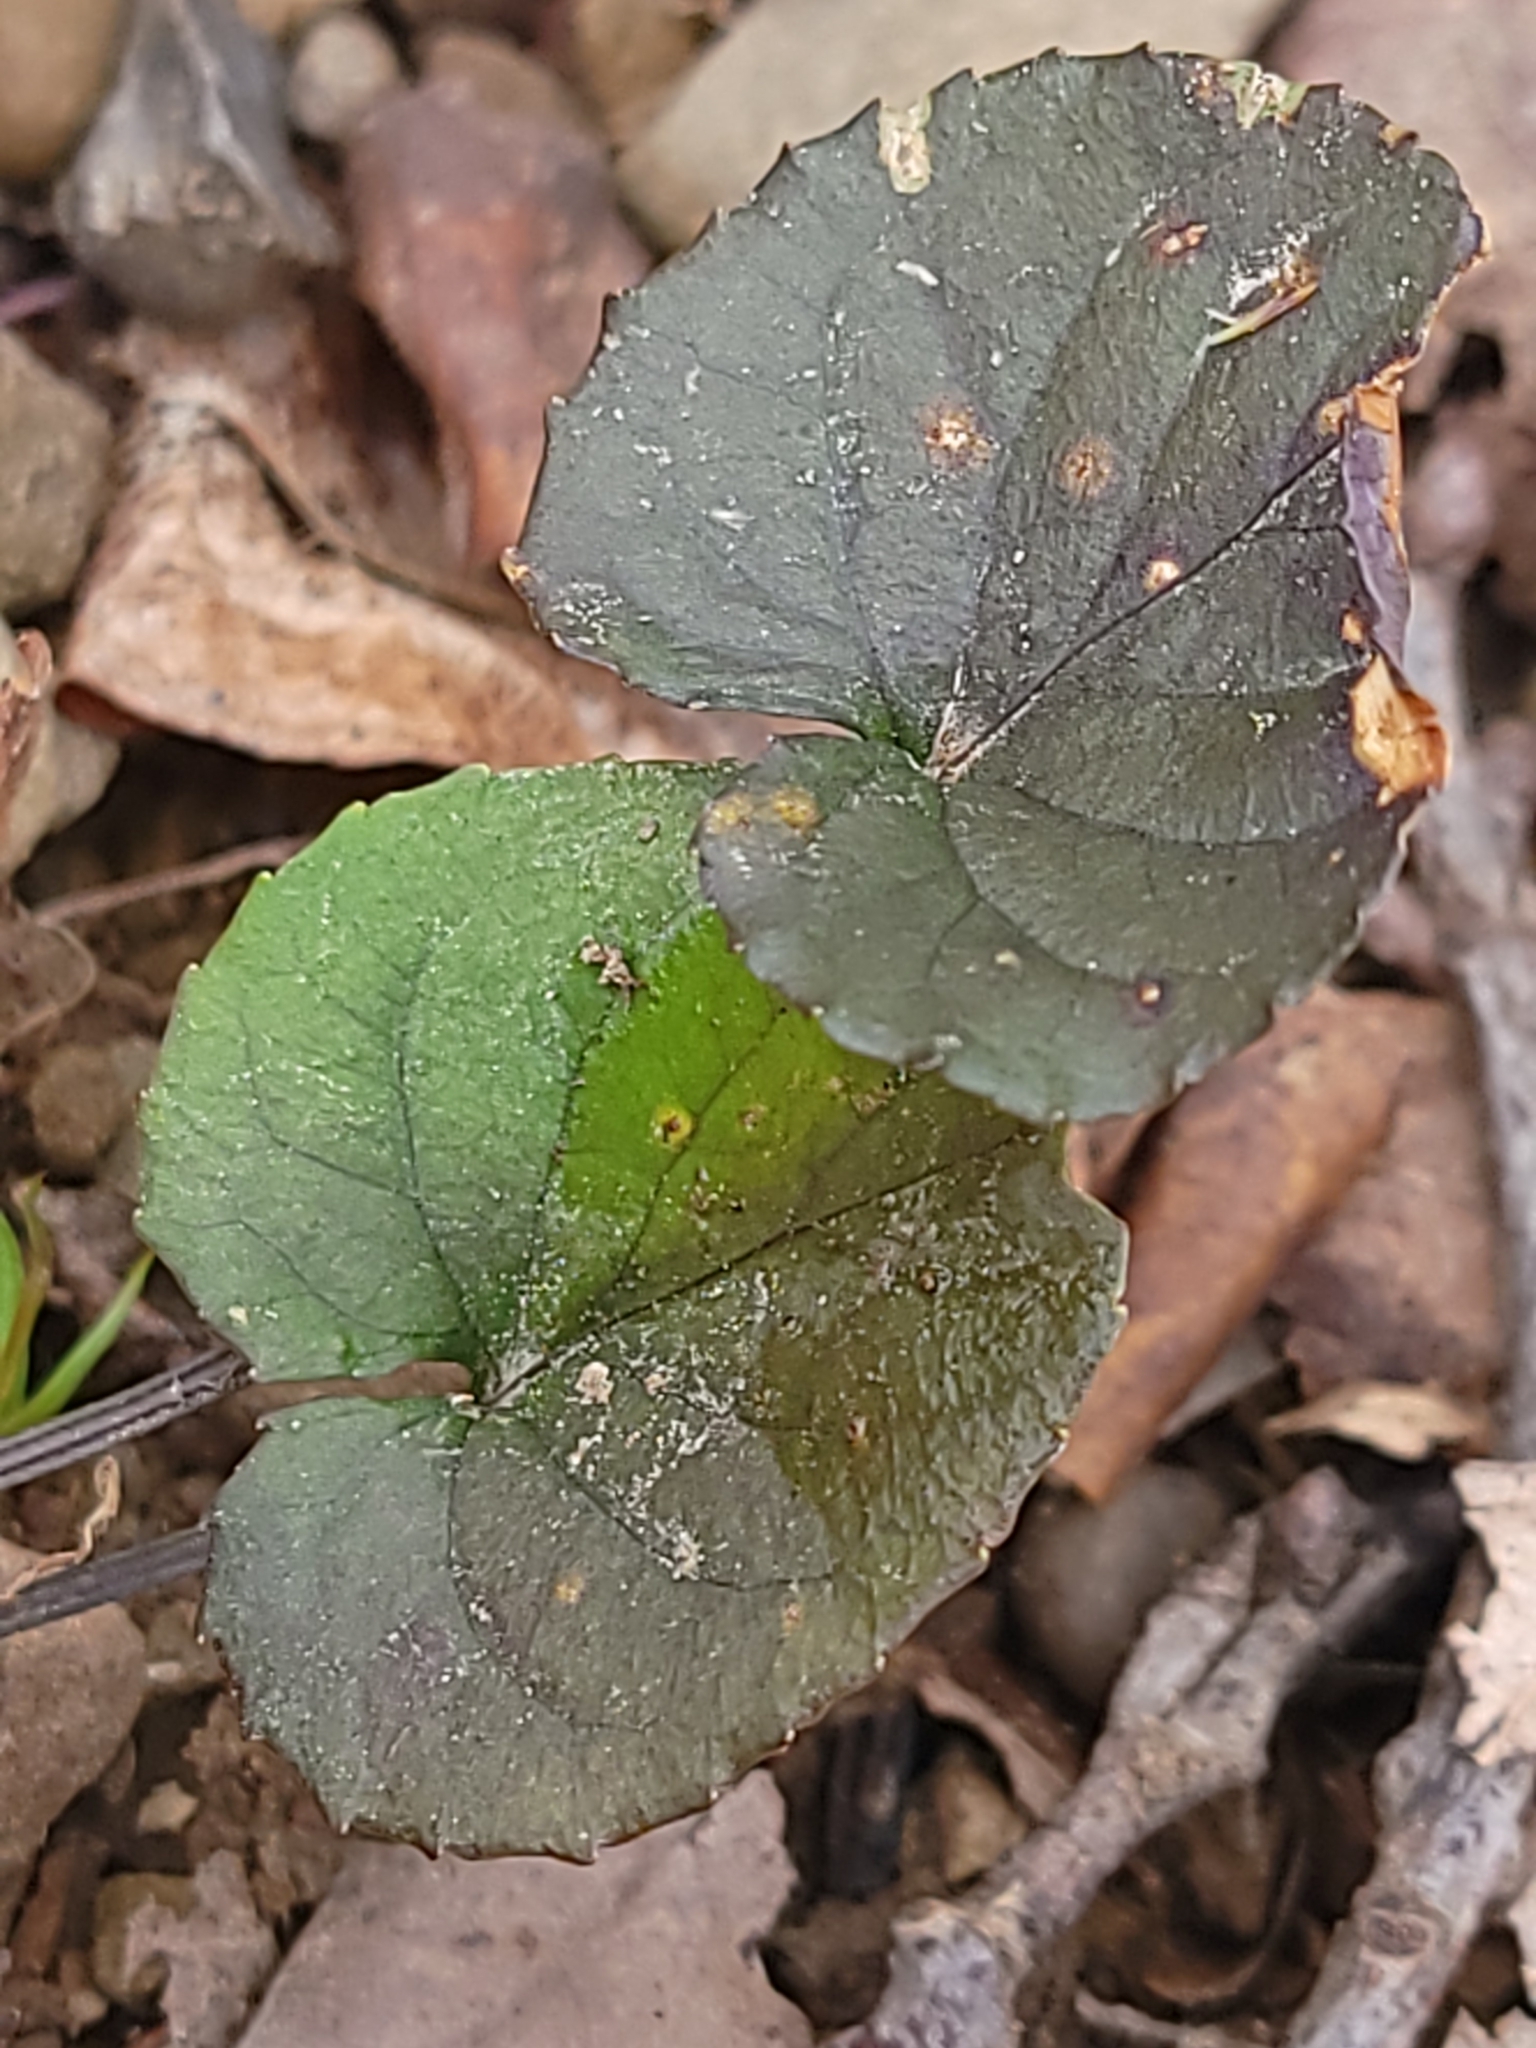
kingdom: Plantae
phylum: Tracheophyta
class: Magnoliopsida
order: Malpighiales
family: Violaceae
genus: Viola
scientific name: Viola rostrata
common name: Long-spur violet
